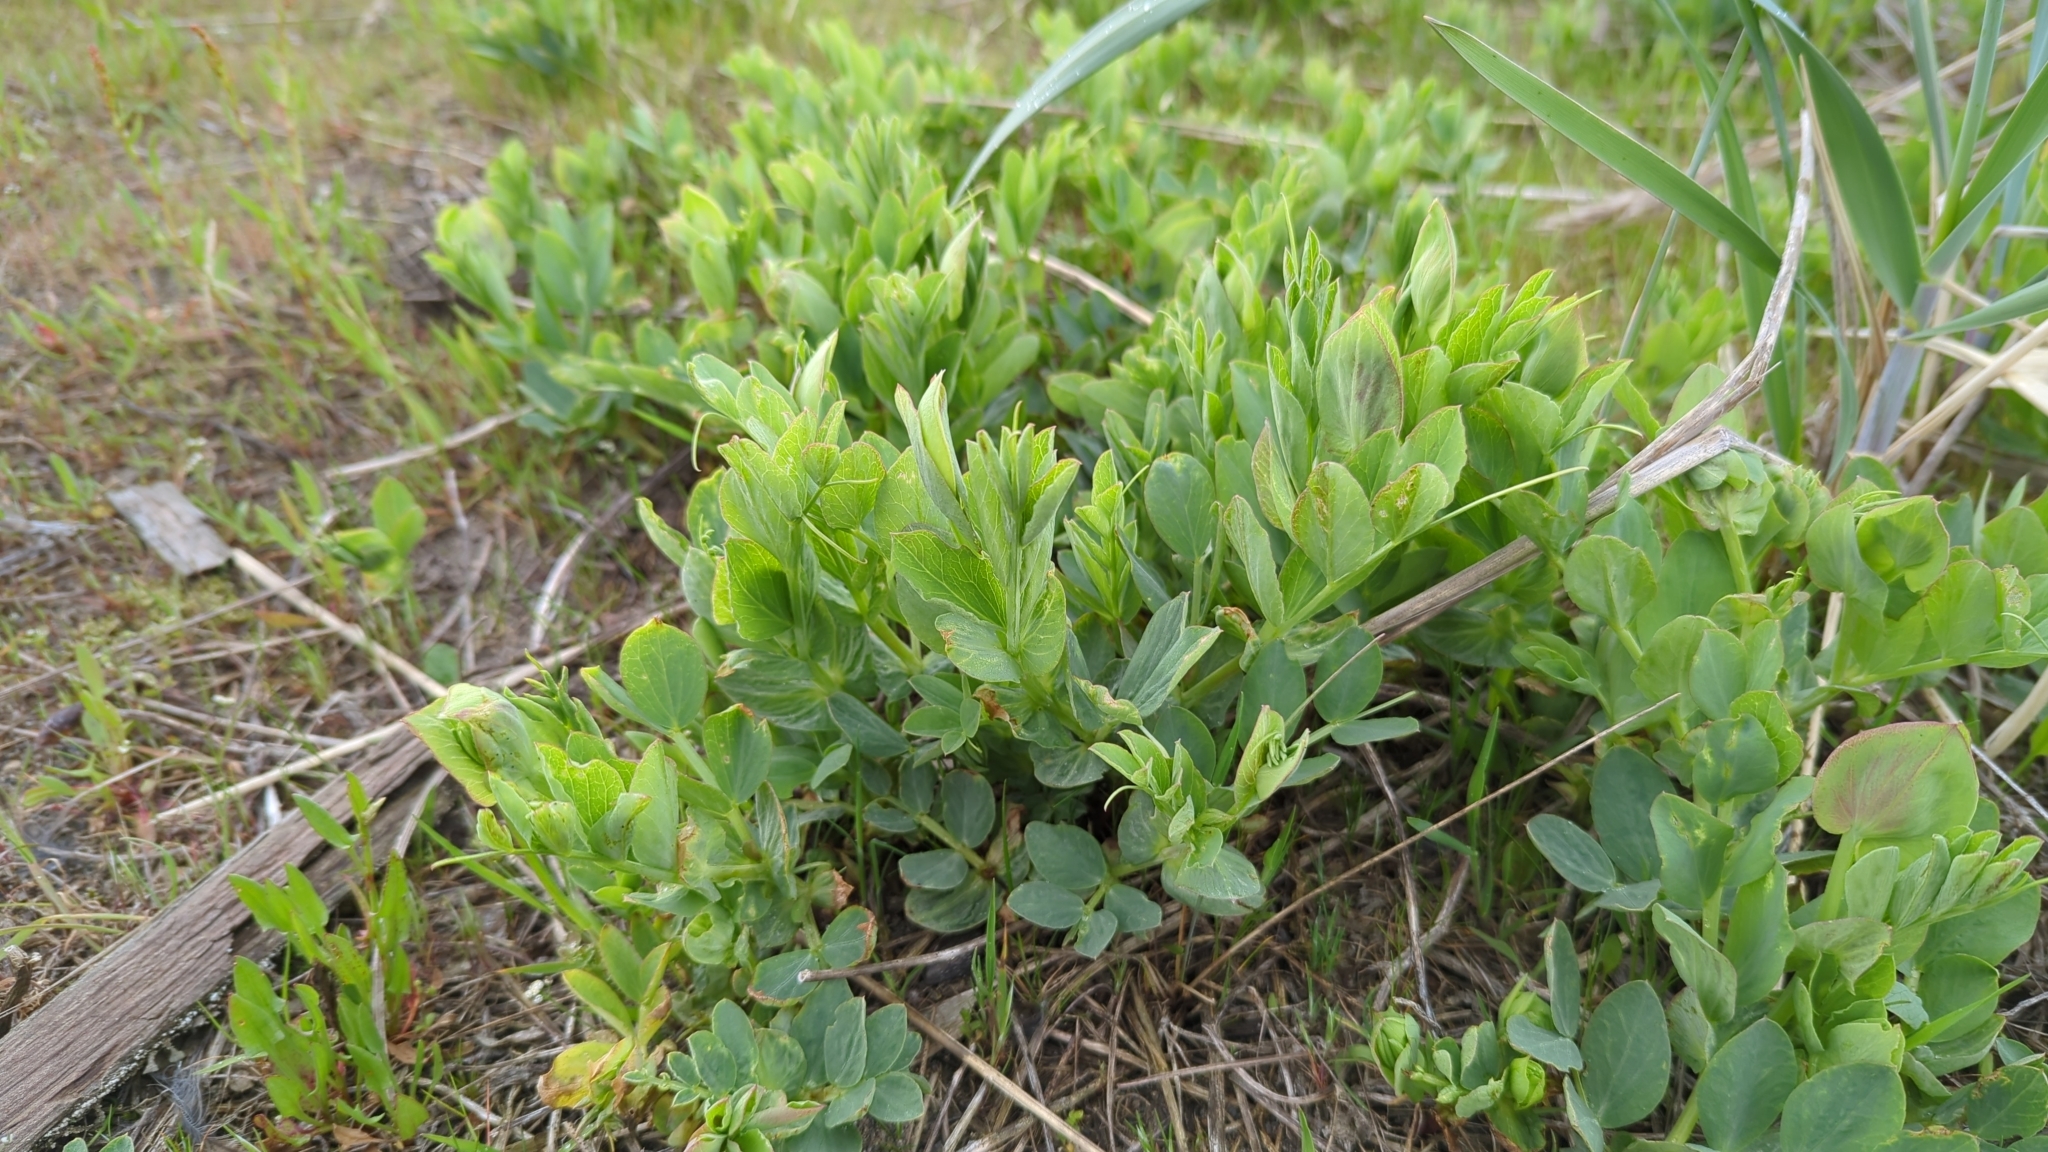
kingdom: Plantae
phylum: Tracheophyta
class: Magnoliopsida
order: Fabales
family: Fabaceae
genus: Lathyrus
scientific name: Lathyrus japonicus
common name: Sea pea
